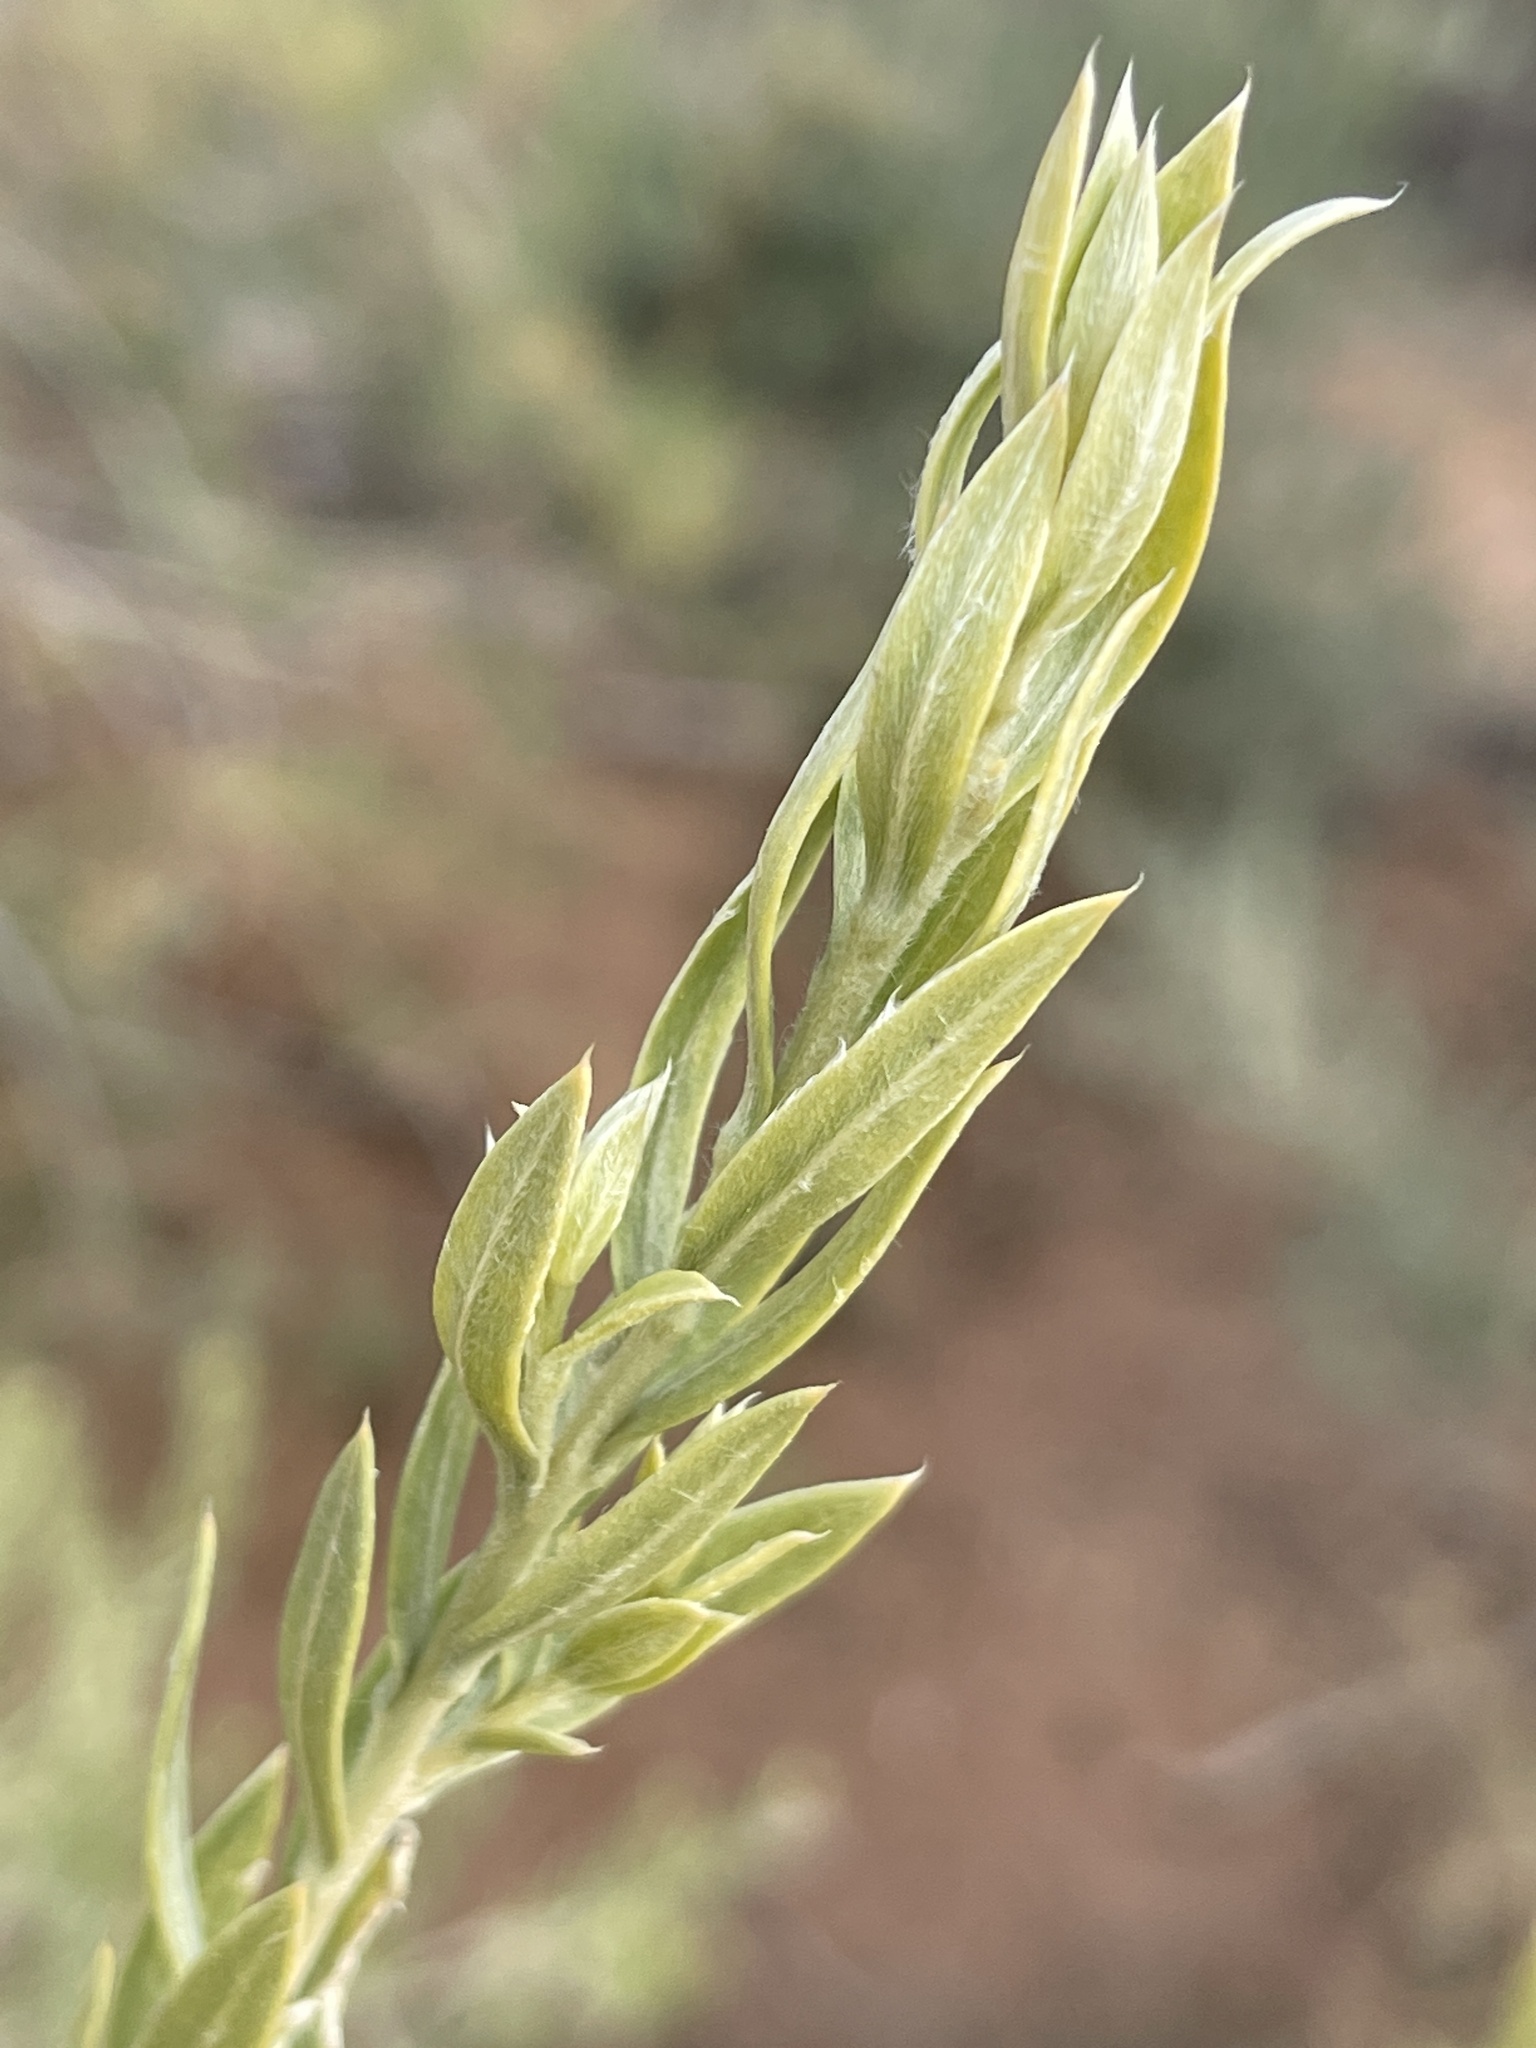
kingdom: Plantae
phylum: Tracheophyta
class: Magnoliopsida
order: Asterales
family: Asteraceae
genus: Pluchea
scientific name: Pluchea sericea
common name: Arrow-weed
